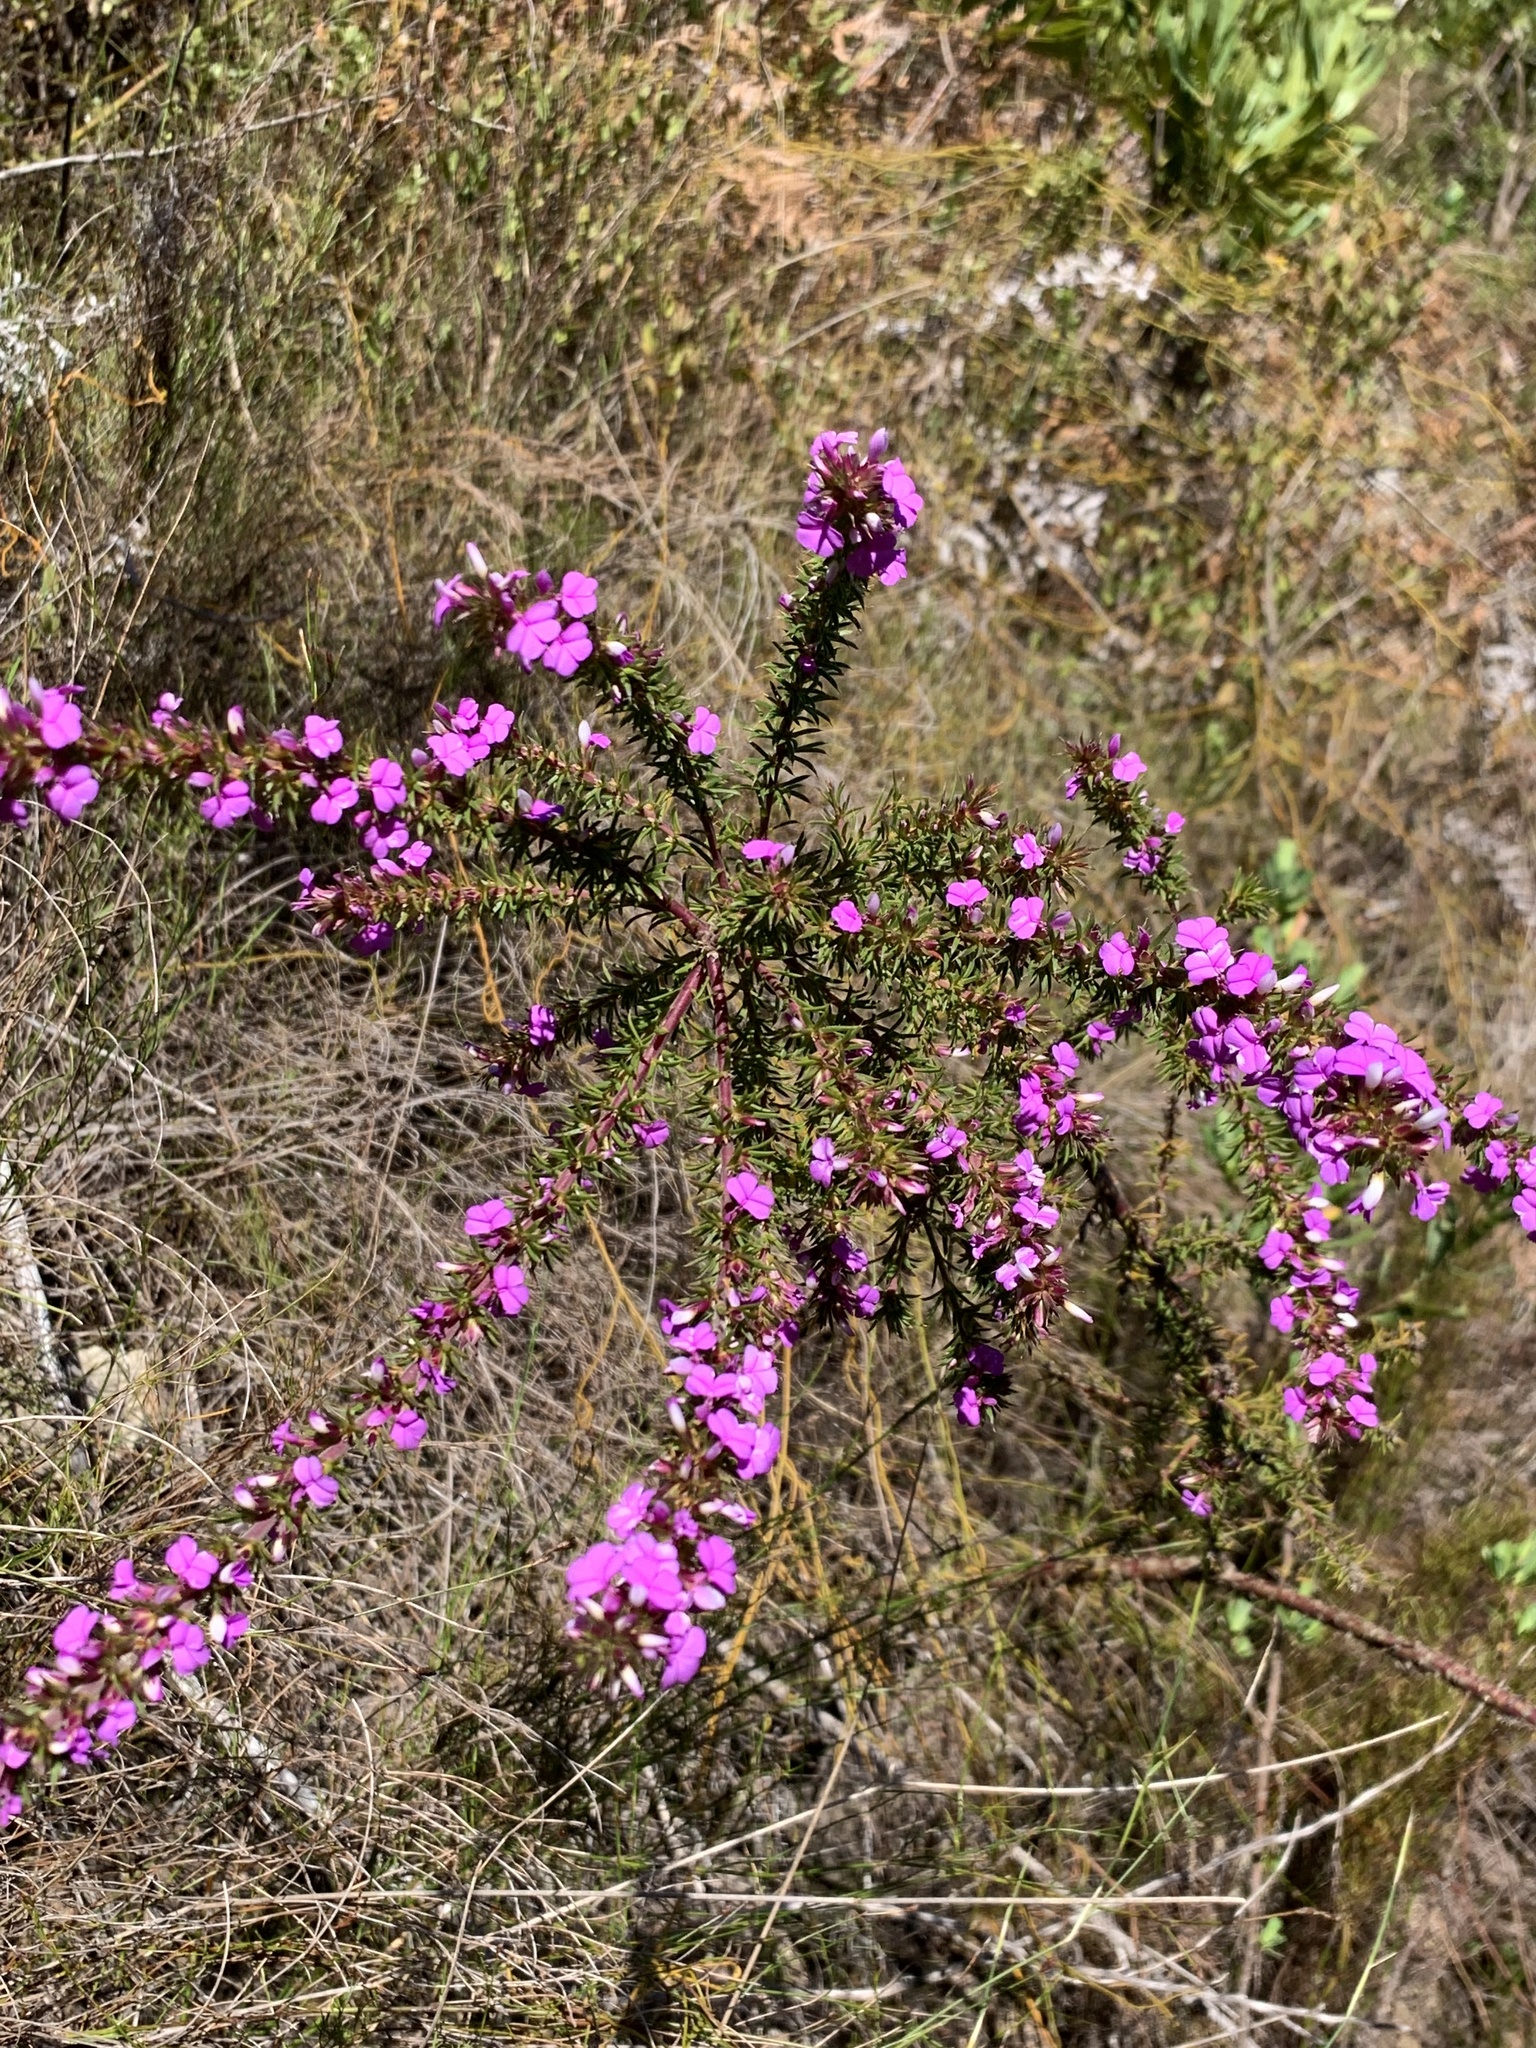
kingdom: Plantae
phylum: Tracheophyta
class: Magnoliopsida
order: Fabales
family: Polygalaceae
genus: Muraltia
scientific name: Muraltia heisteria
